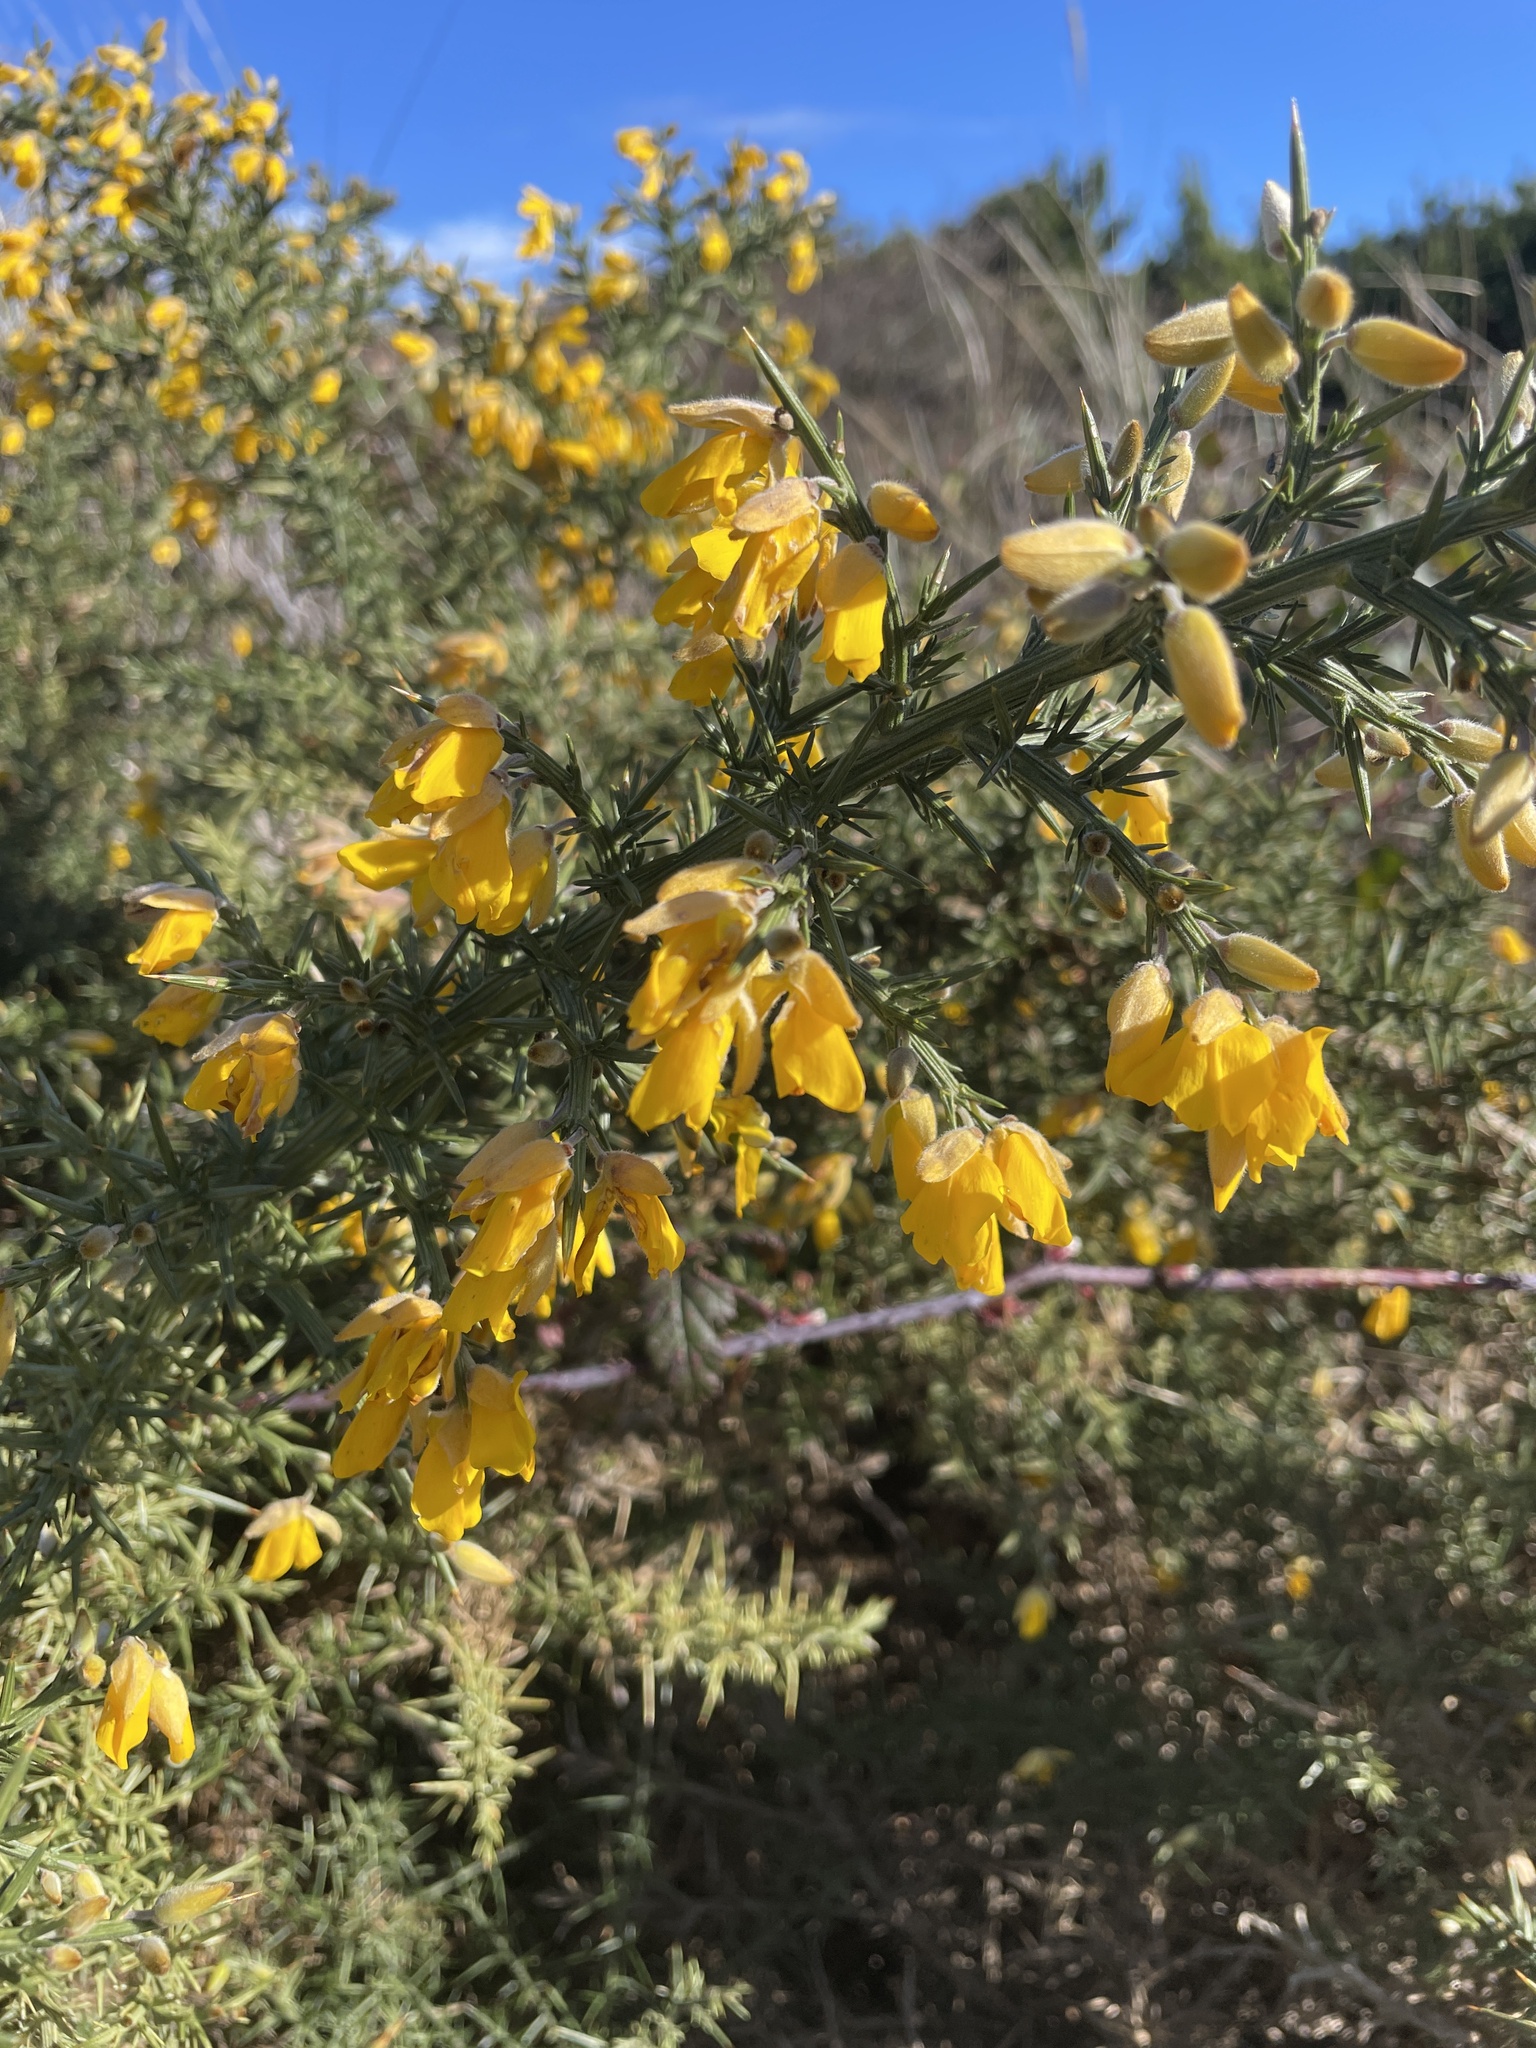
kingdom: Plantae
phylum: Tracheophyta
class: Magnoliopsida
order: Fabales
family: Fabaceae
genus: Ulex
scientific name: Ulex europaeus
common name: Common gorse
